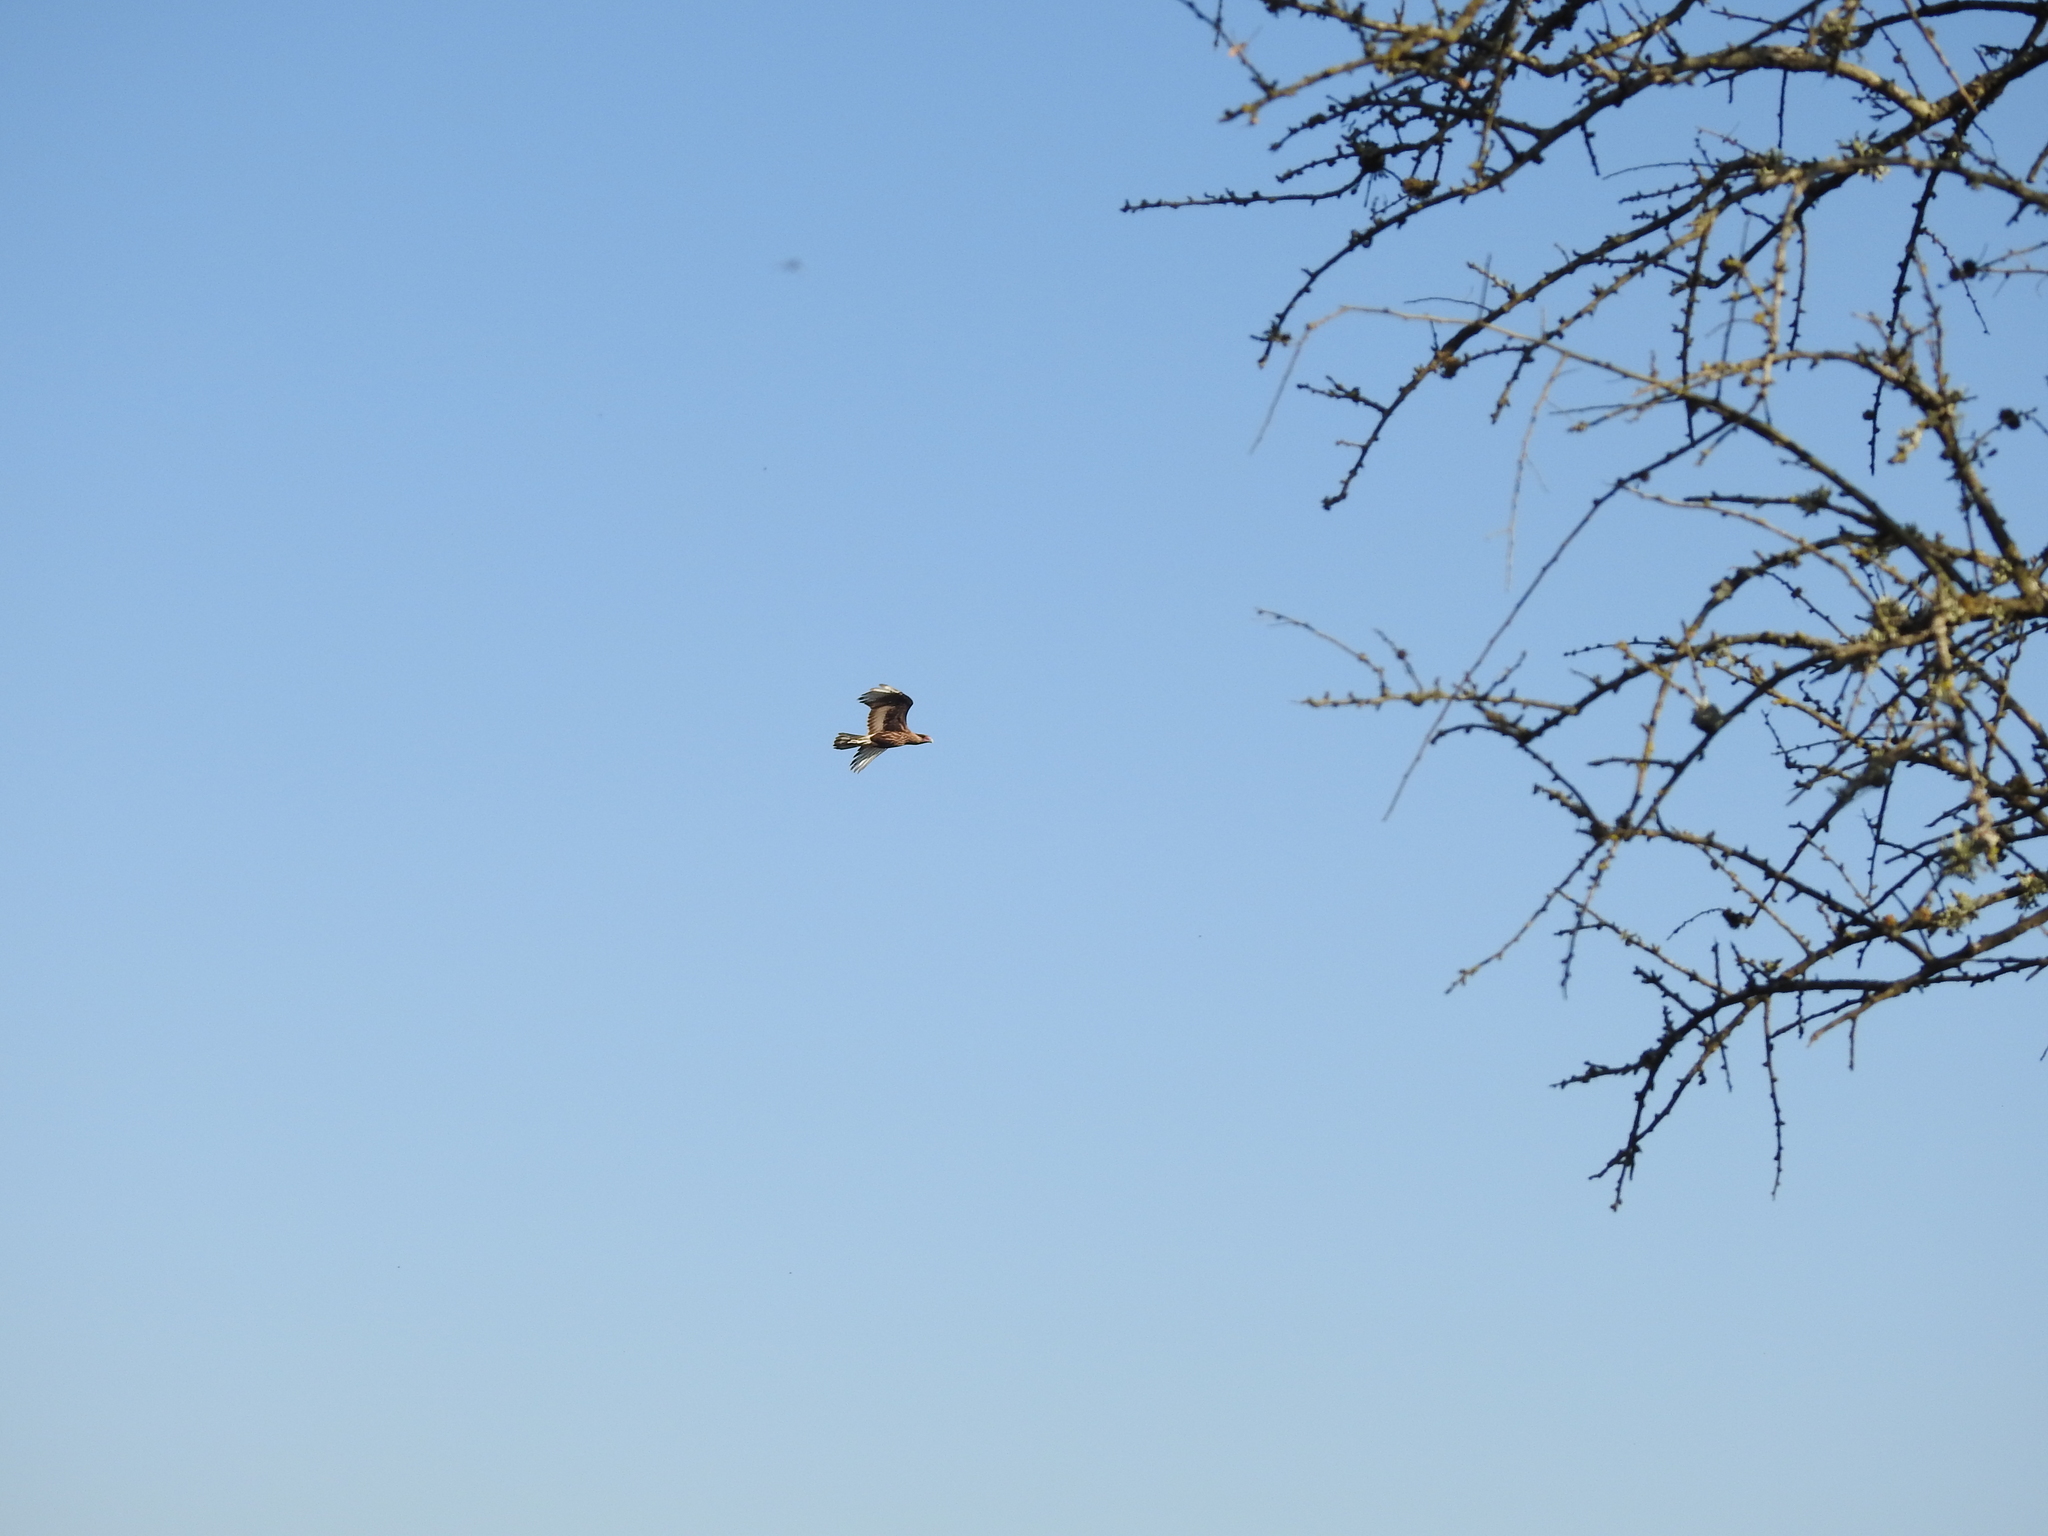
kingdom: Animalia
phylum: Chordata
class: Aves
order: Falconiformes
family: Falconidae
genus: Caracara
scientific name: Caracara plancus
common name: Southern caracara
